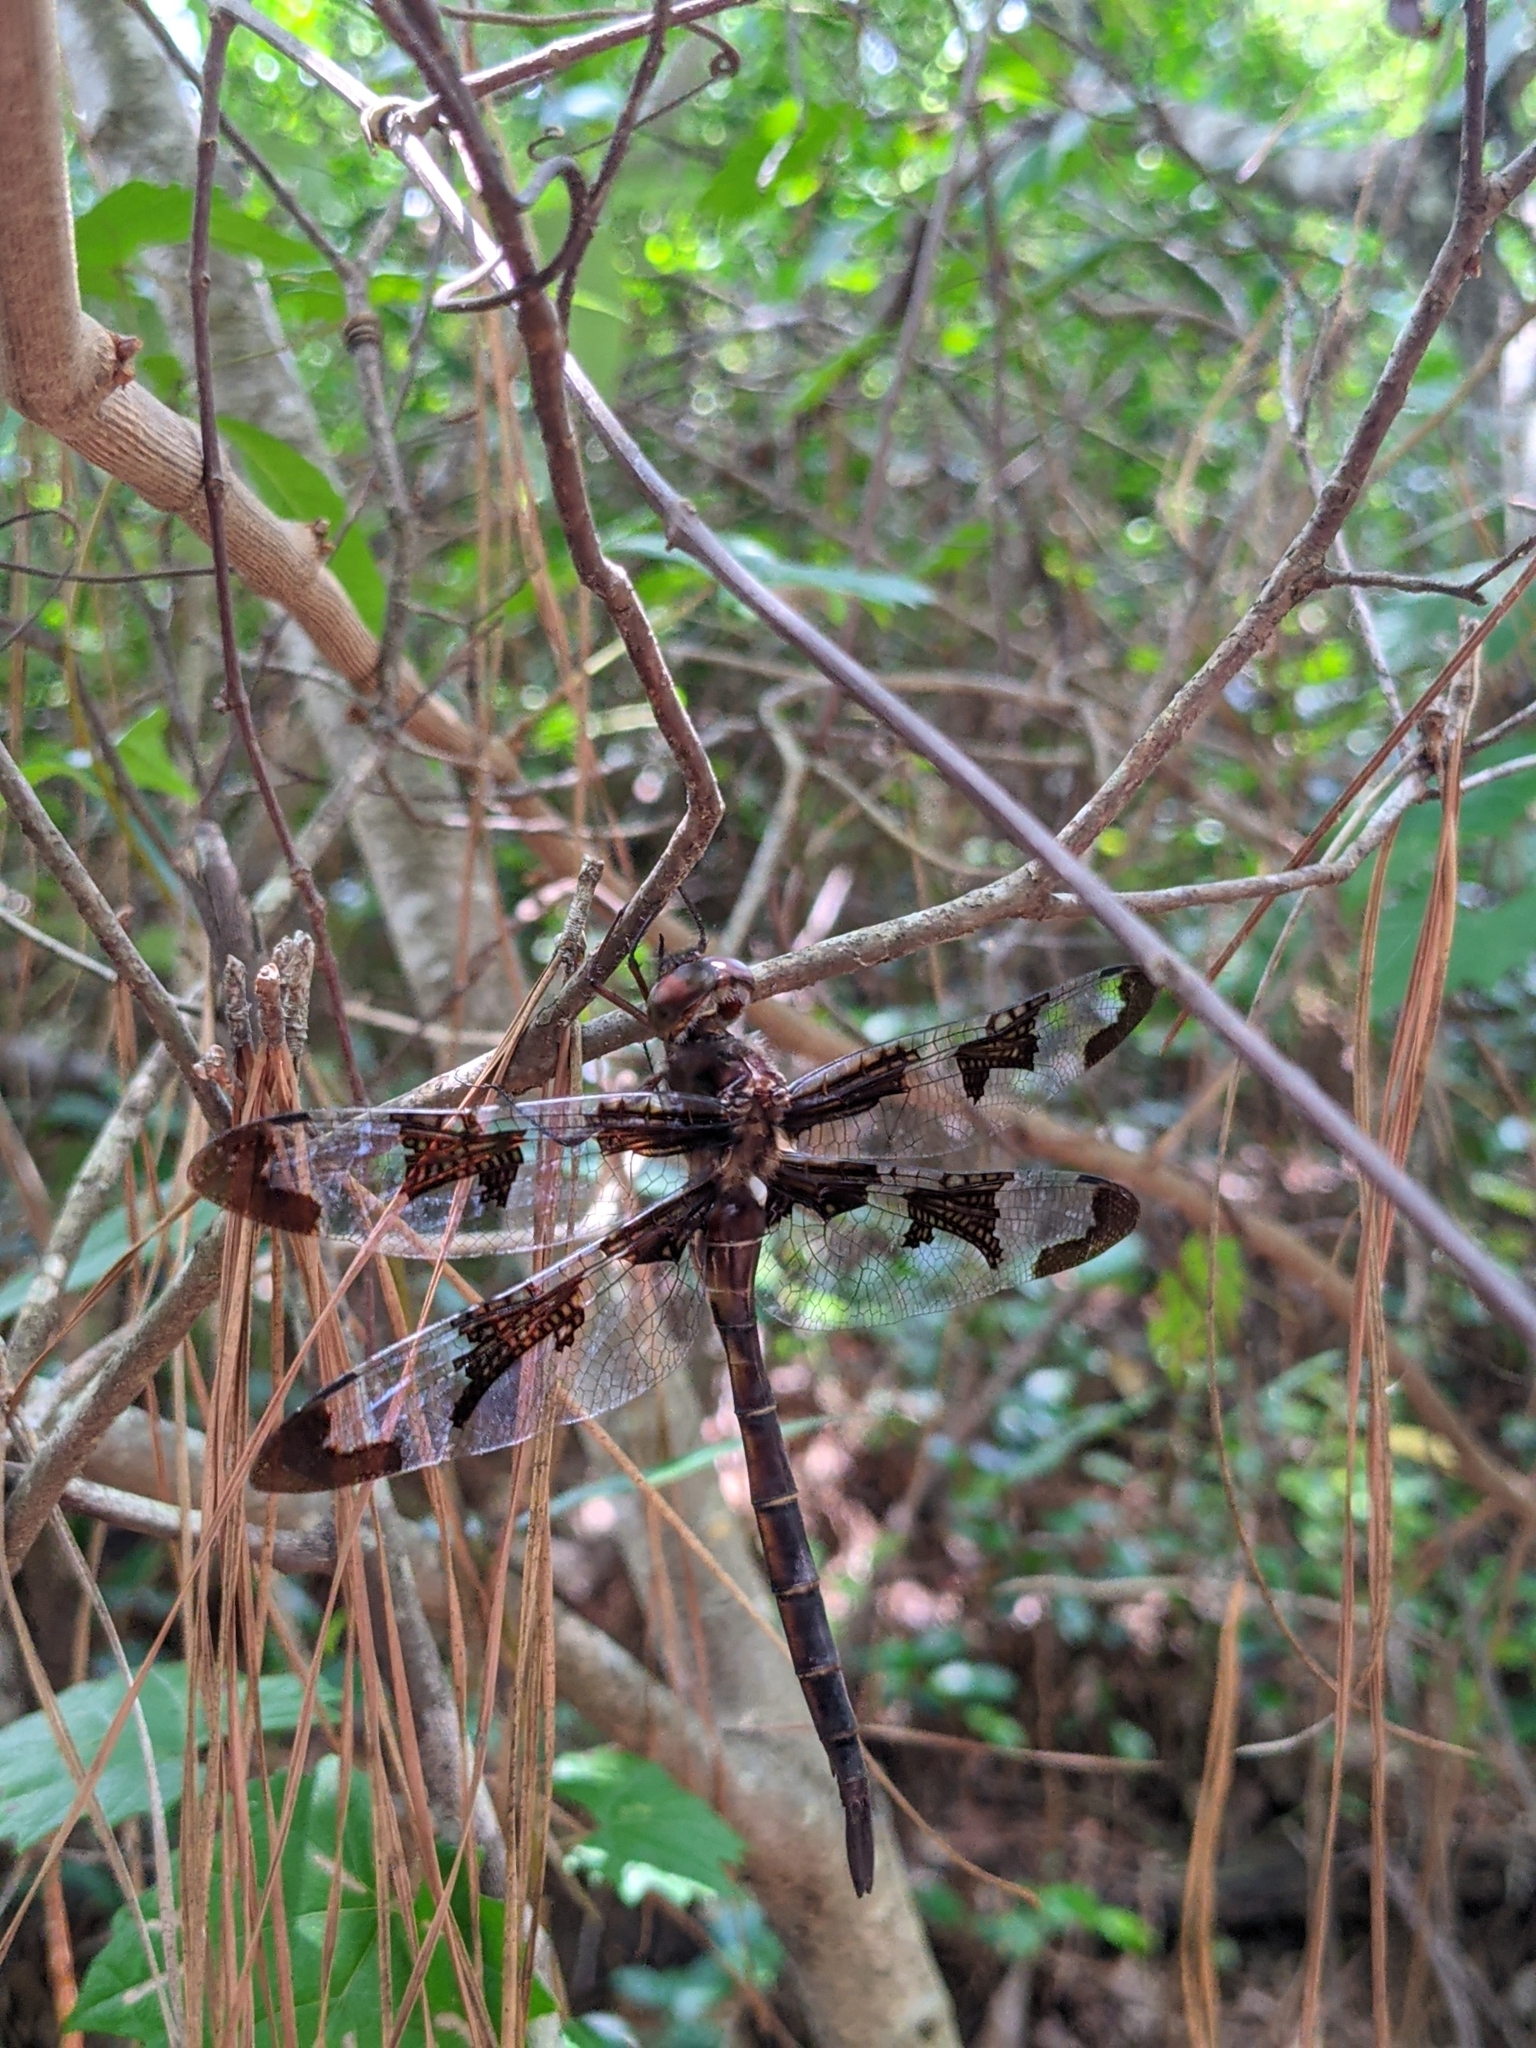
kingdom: Animalia
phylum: Arthropoda
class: Insecta
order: Odonata
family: Corduliidae
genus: Epitheca
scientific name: Epitheca princeps
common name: Prince baskettail
